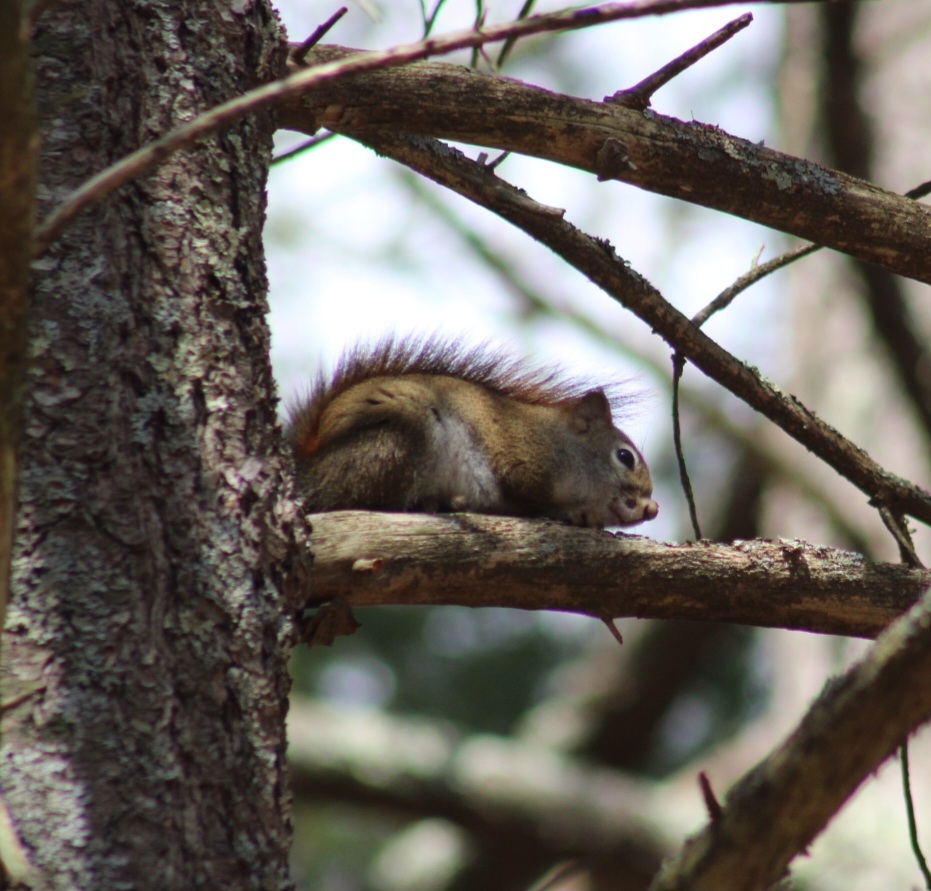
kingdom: Animalia
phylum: Chordata
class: Mammalia
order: Rodentia
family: Sciuridae
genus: Tamiasciurus
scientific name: Tamiasciurus hudsonicus
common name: Red squirrel
